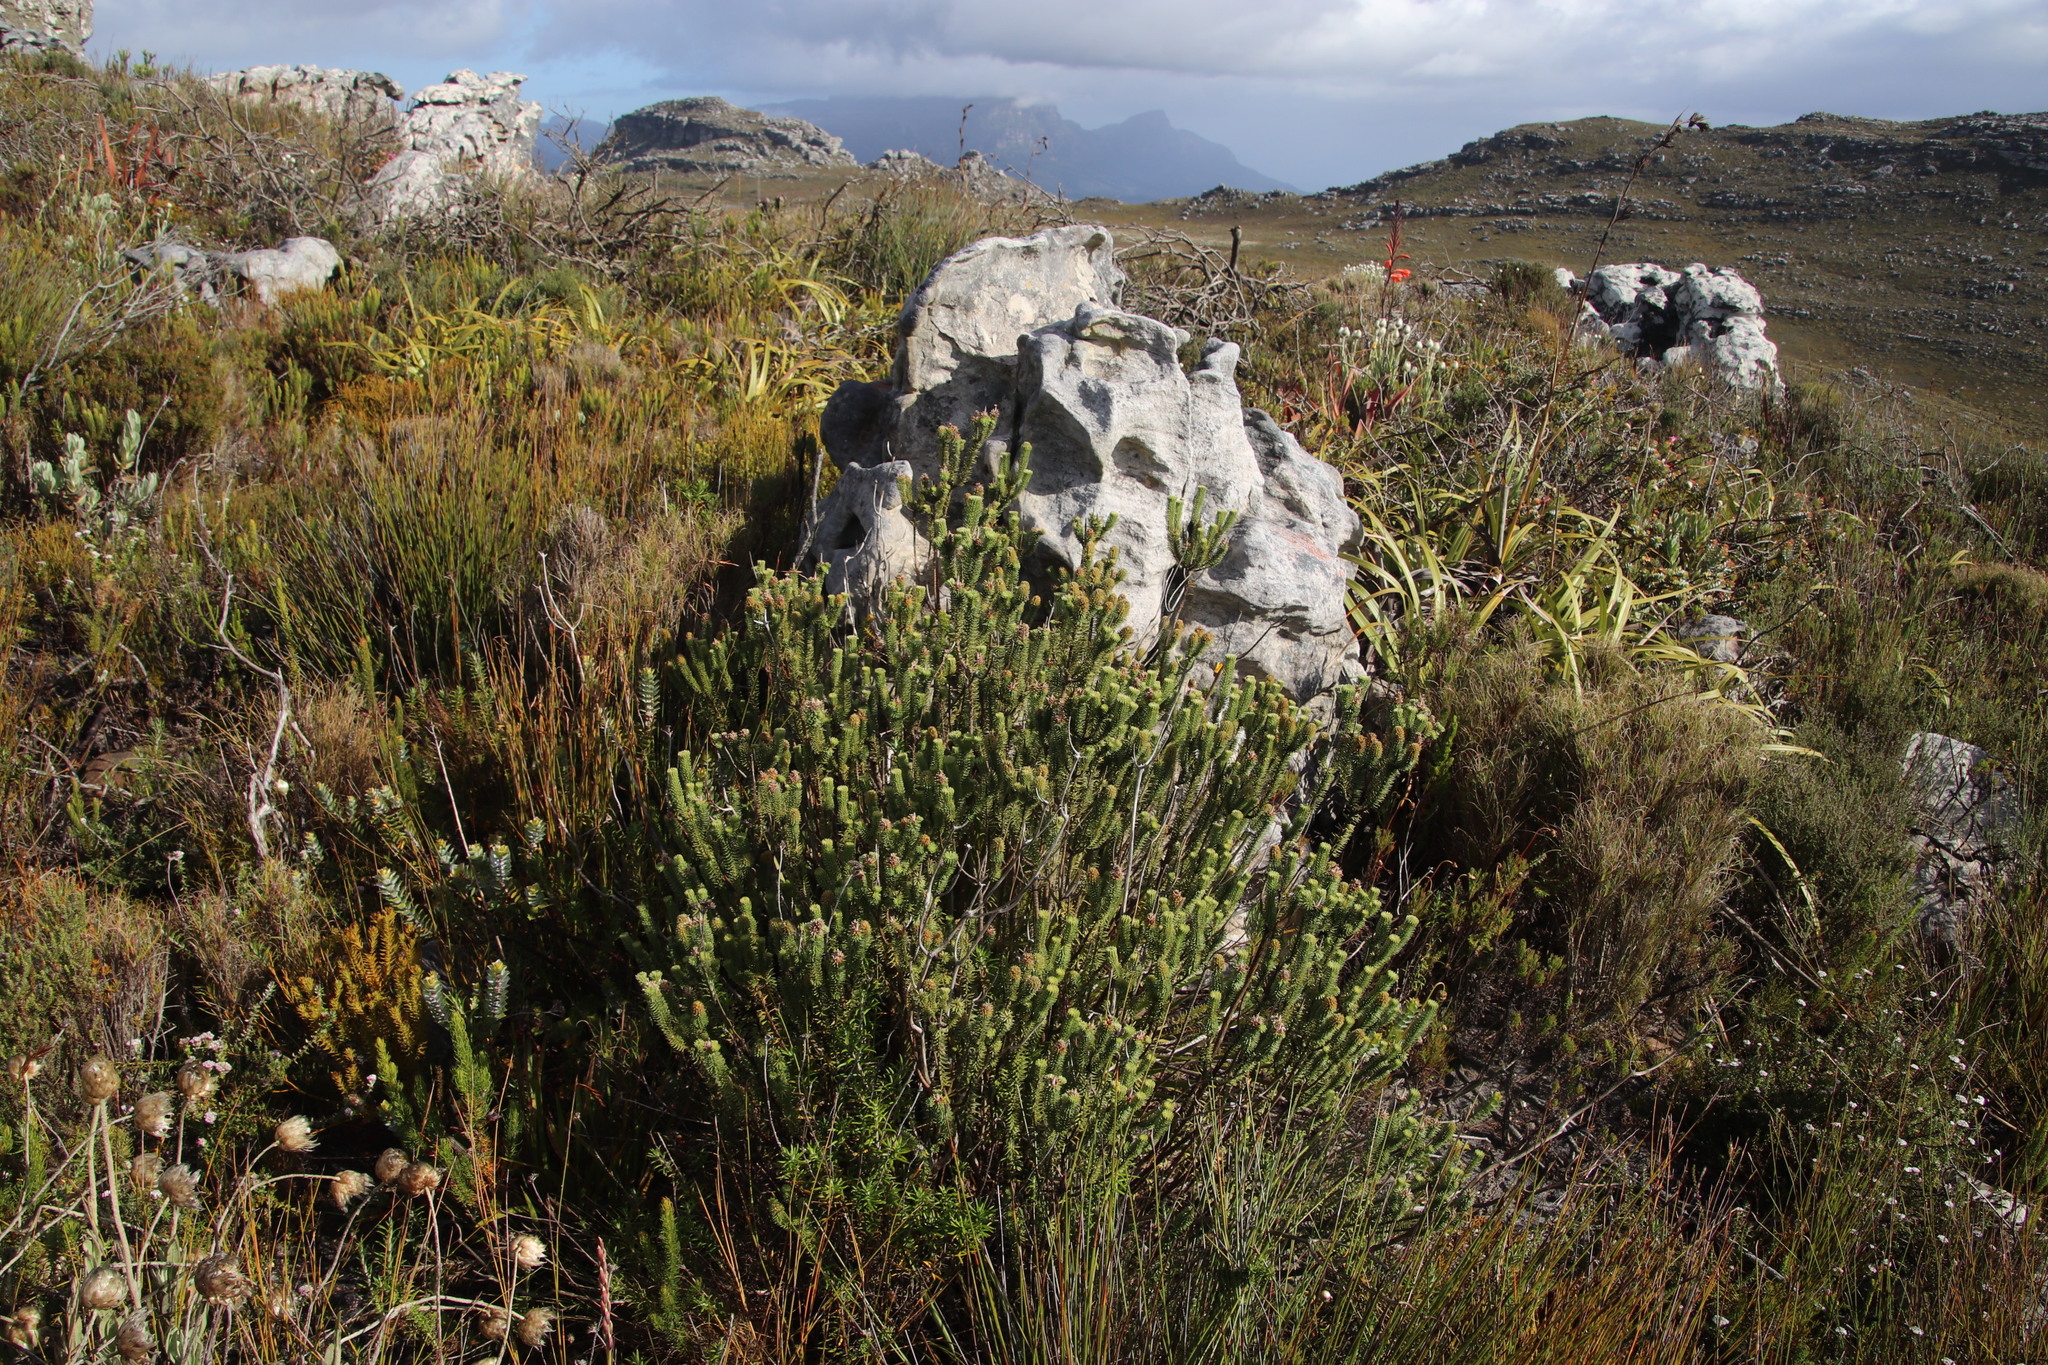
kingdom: Plantae
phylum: Tracheophyta
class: Magnoliopsida
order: Lamiales
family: Stilbaceae
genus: Stilbe
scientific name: Stilbe vestita
